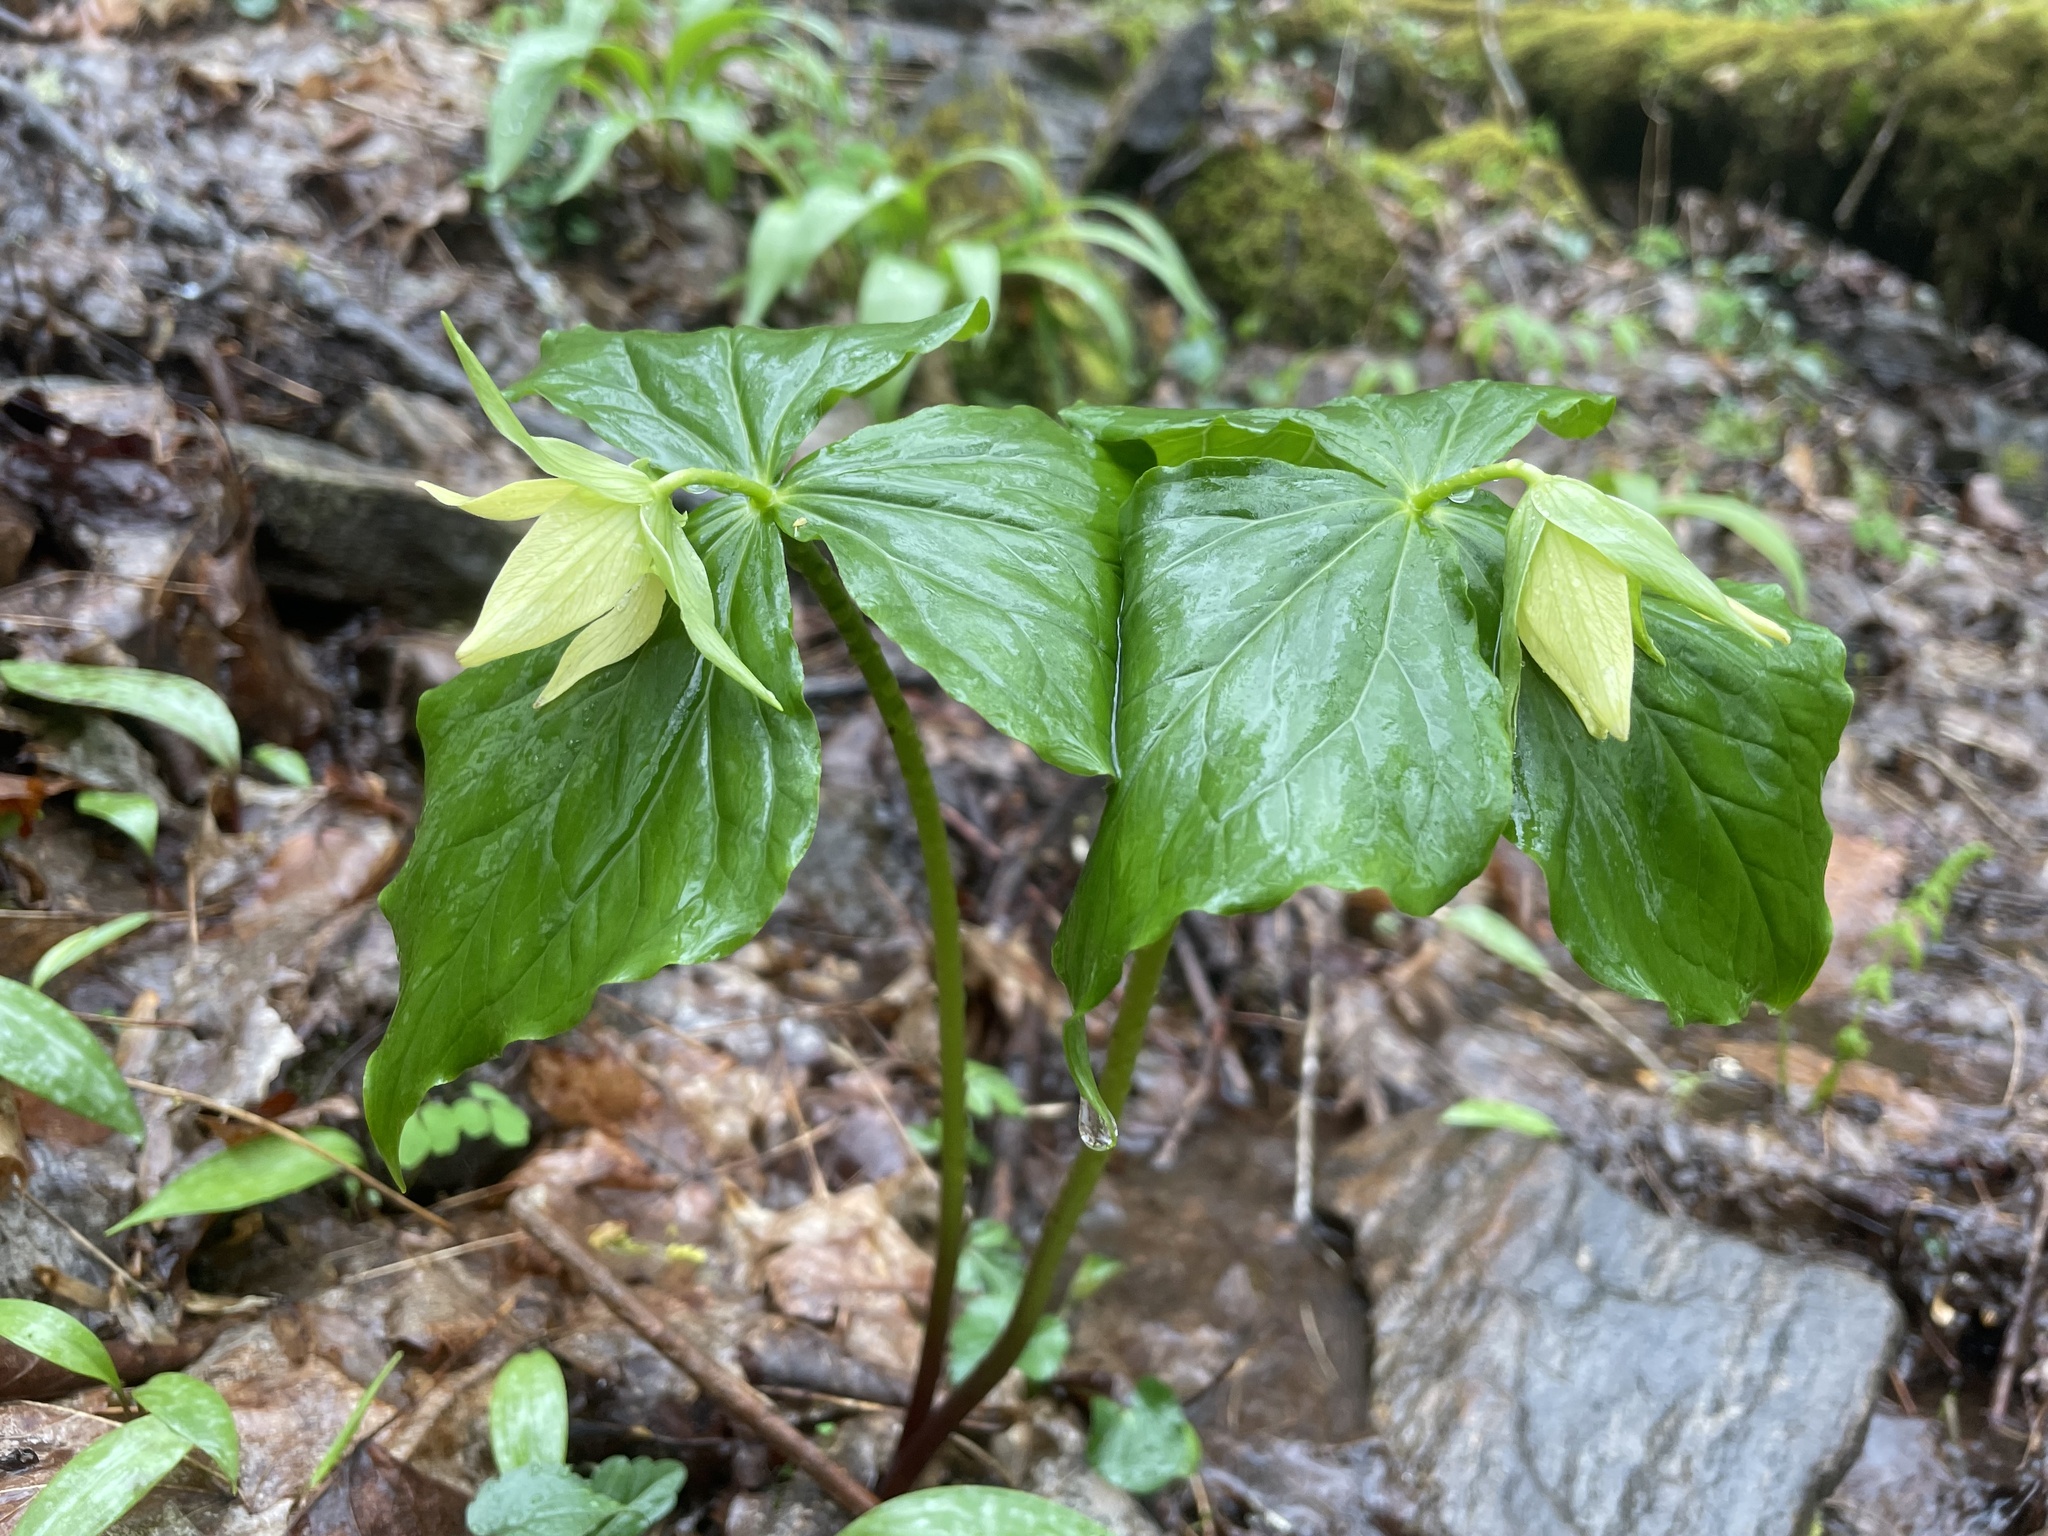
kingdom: Plantae
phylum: Tracheophyta
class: Liliopsida
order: Liliales
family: Melanthiaceae
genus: Trillium
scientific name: Trillium erectum
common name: Purple trillium
